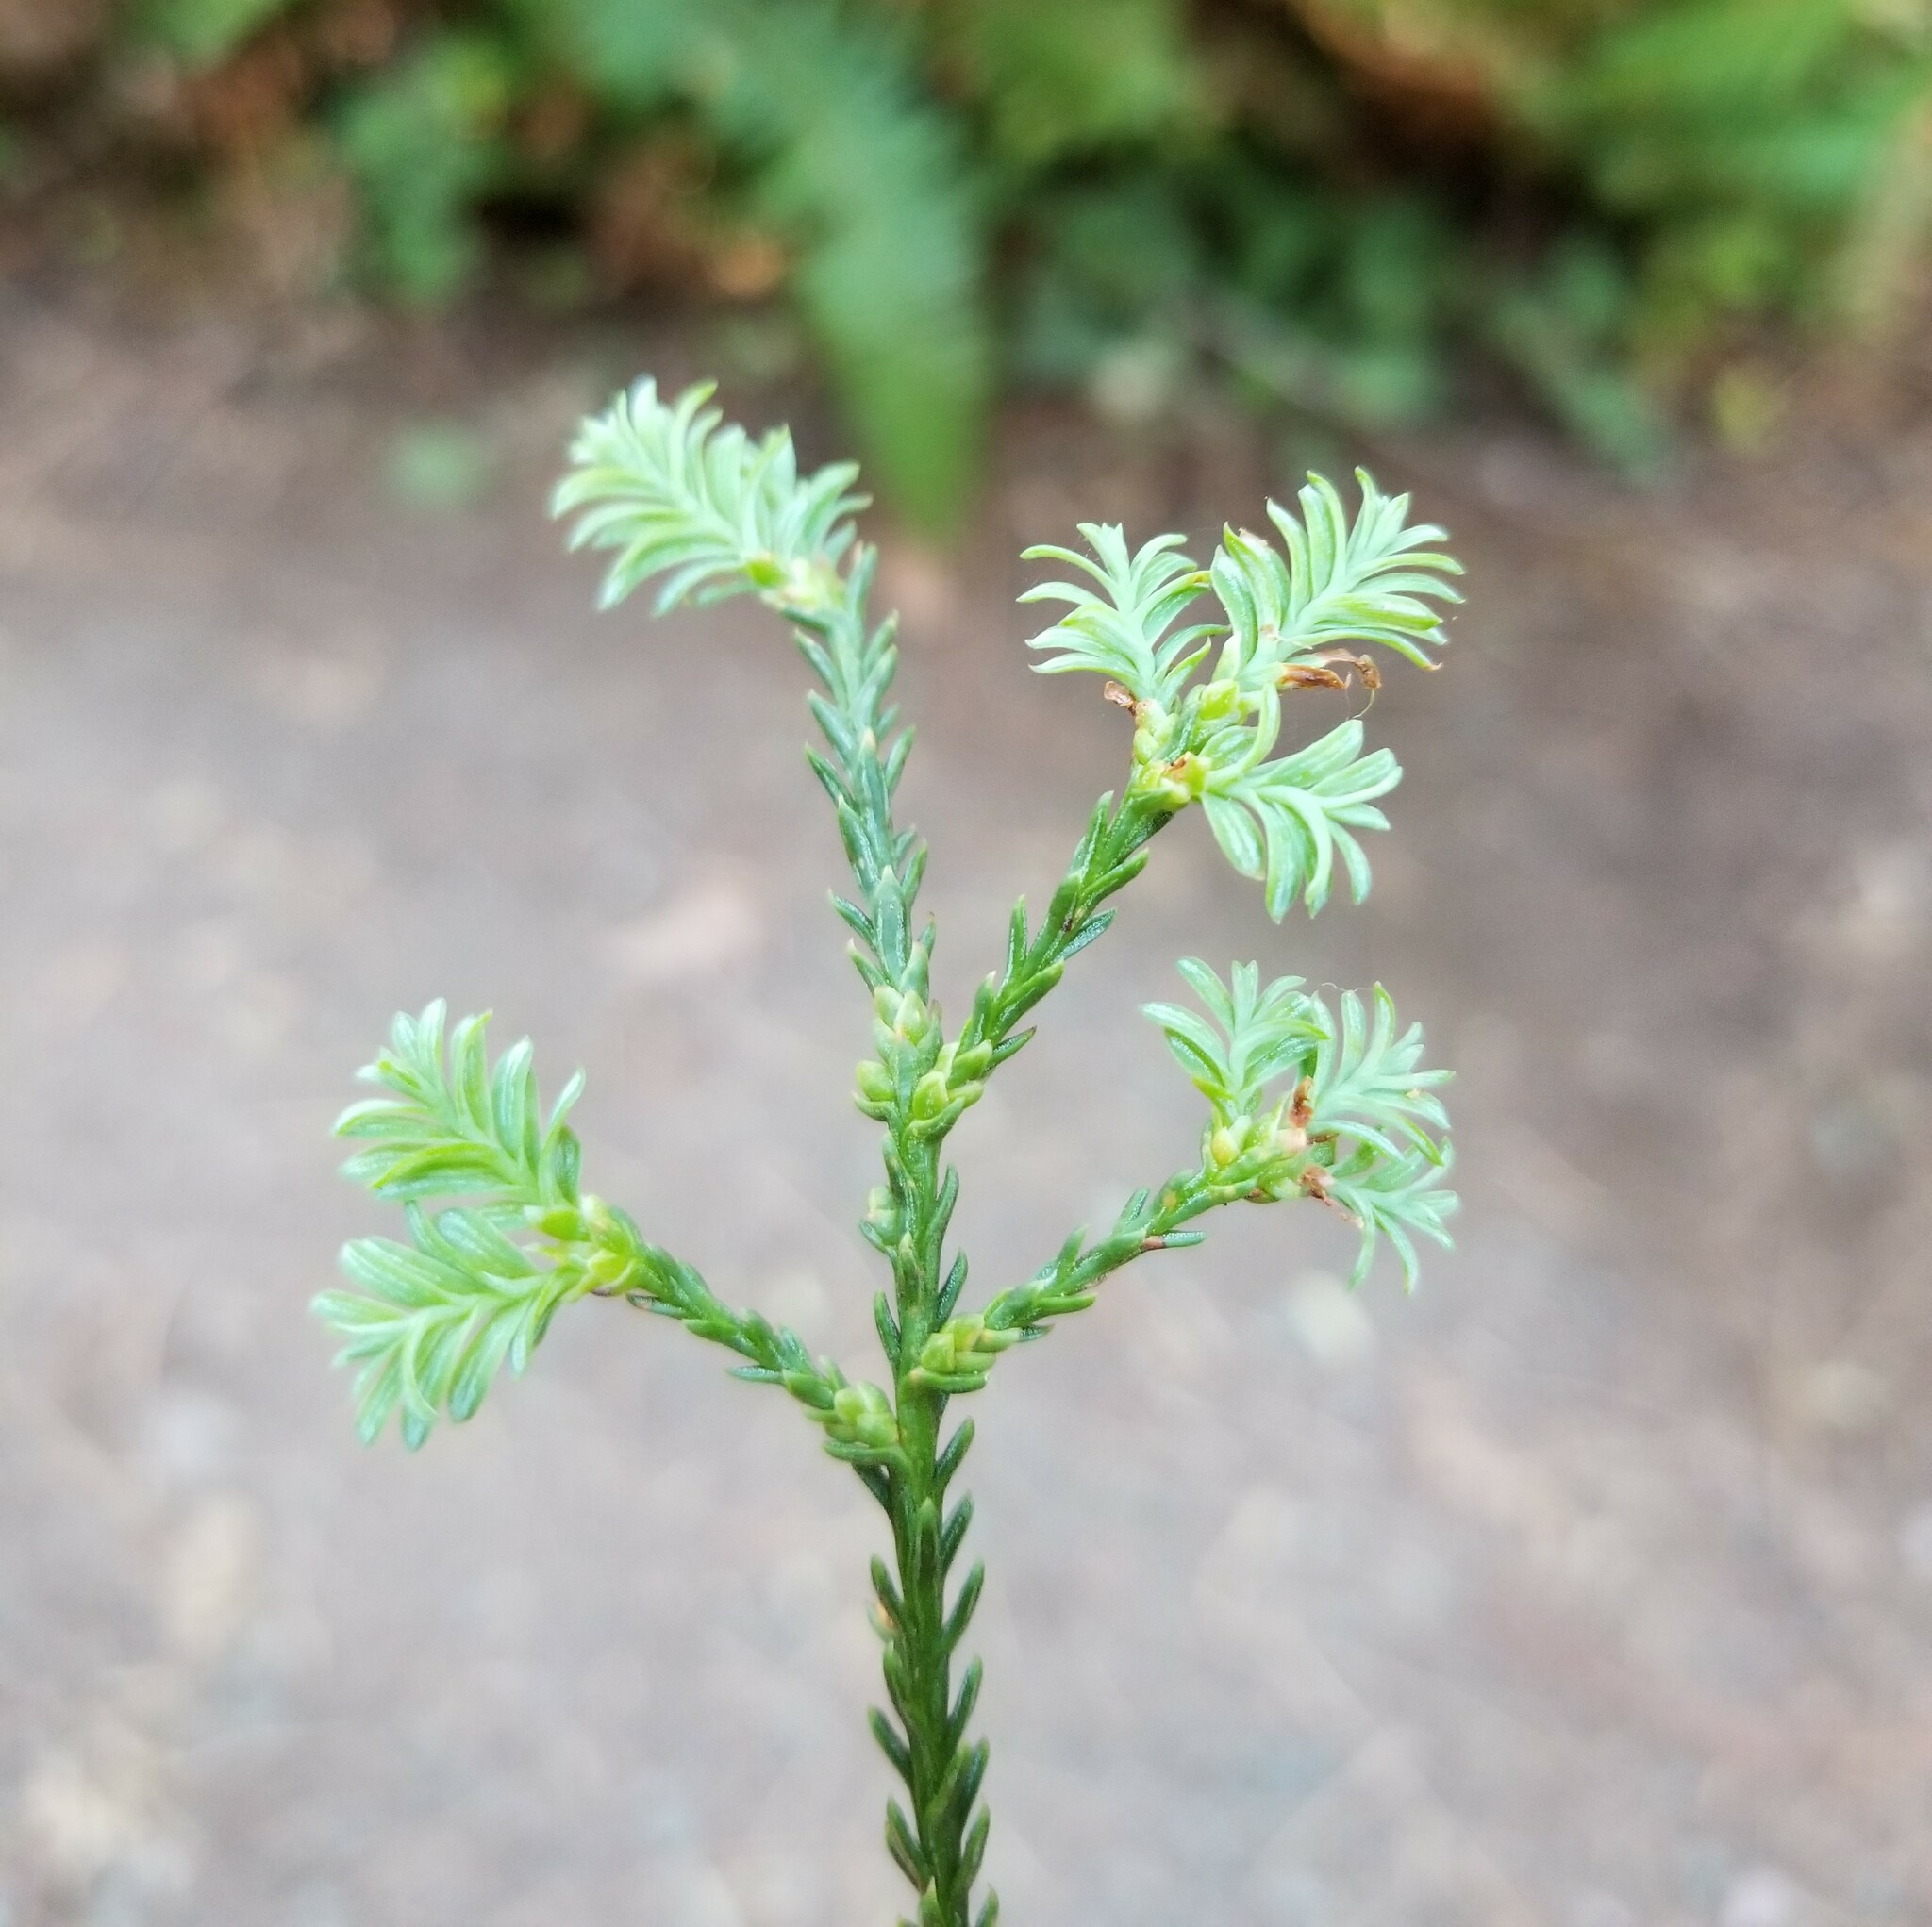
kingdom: Plantae
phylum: Tracheophyta
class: Pinopsida
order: Pinales
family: Cupressaceae
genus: Sequoia
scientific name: Sequoia sempervirens
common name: Coast redwood
